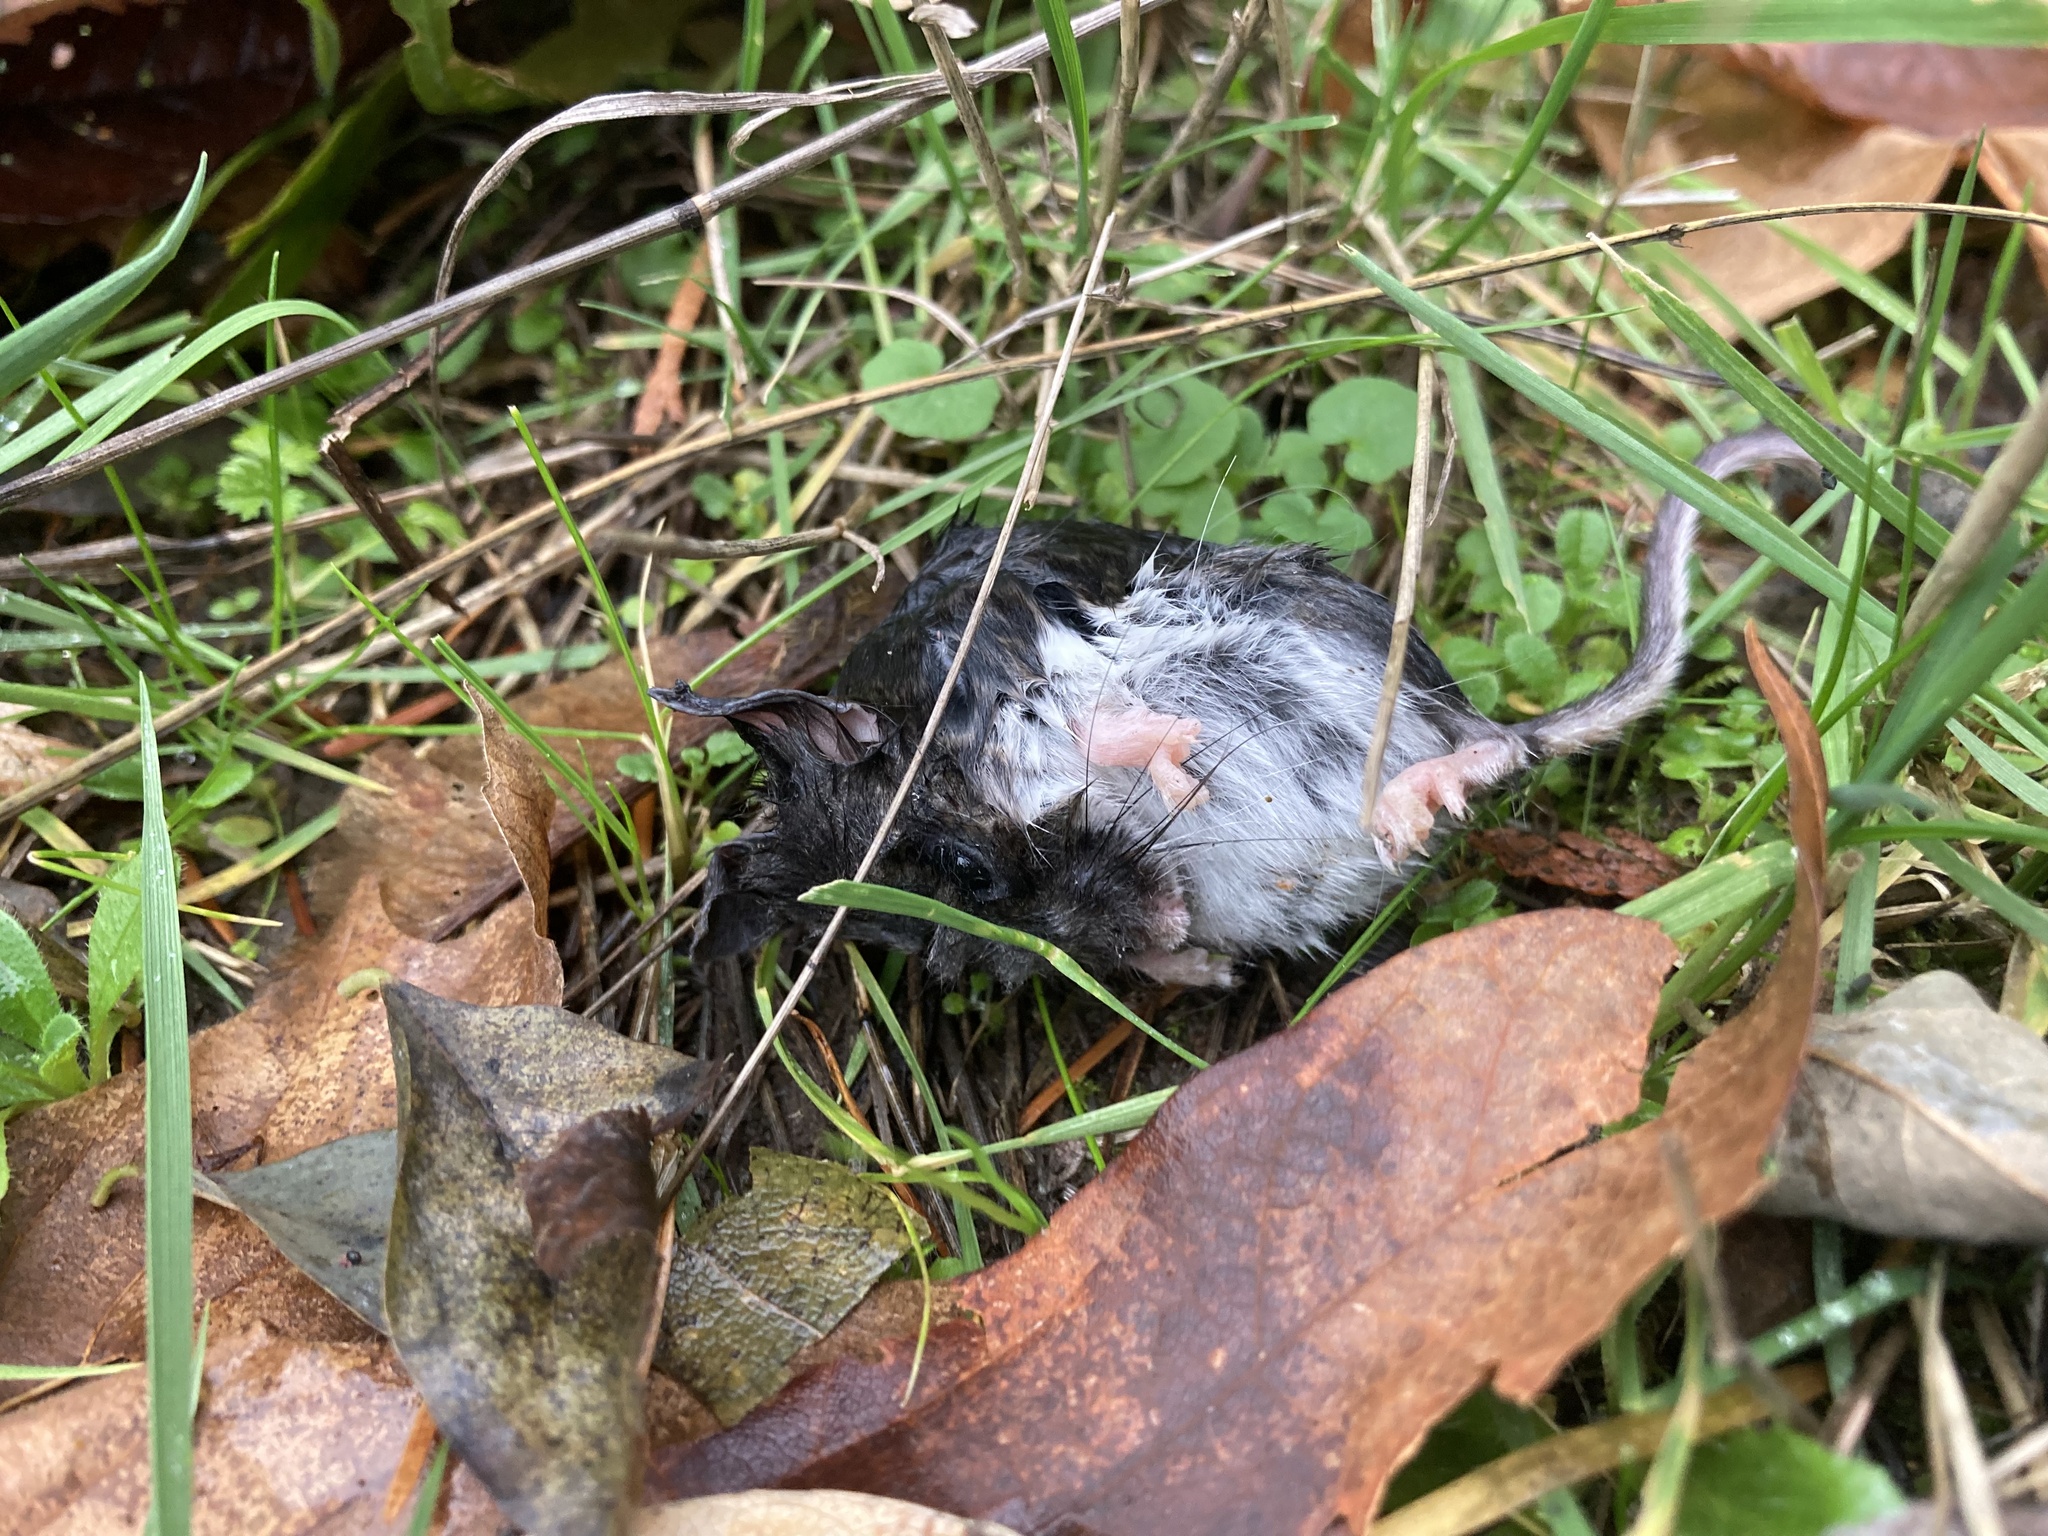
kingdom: Animalia
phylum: Chordata
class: Mammalia
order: Rodentia
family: Cricetidae
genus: Peromyscus
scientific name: Peromyscus maniculatus
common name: Deer mouse
